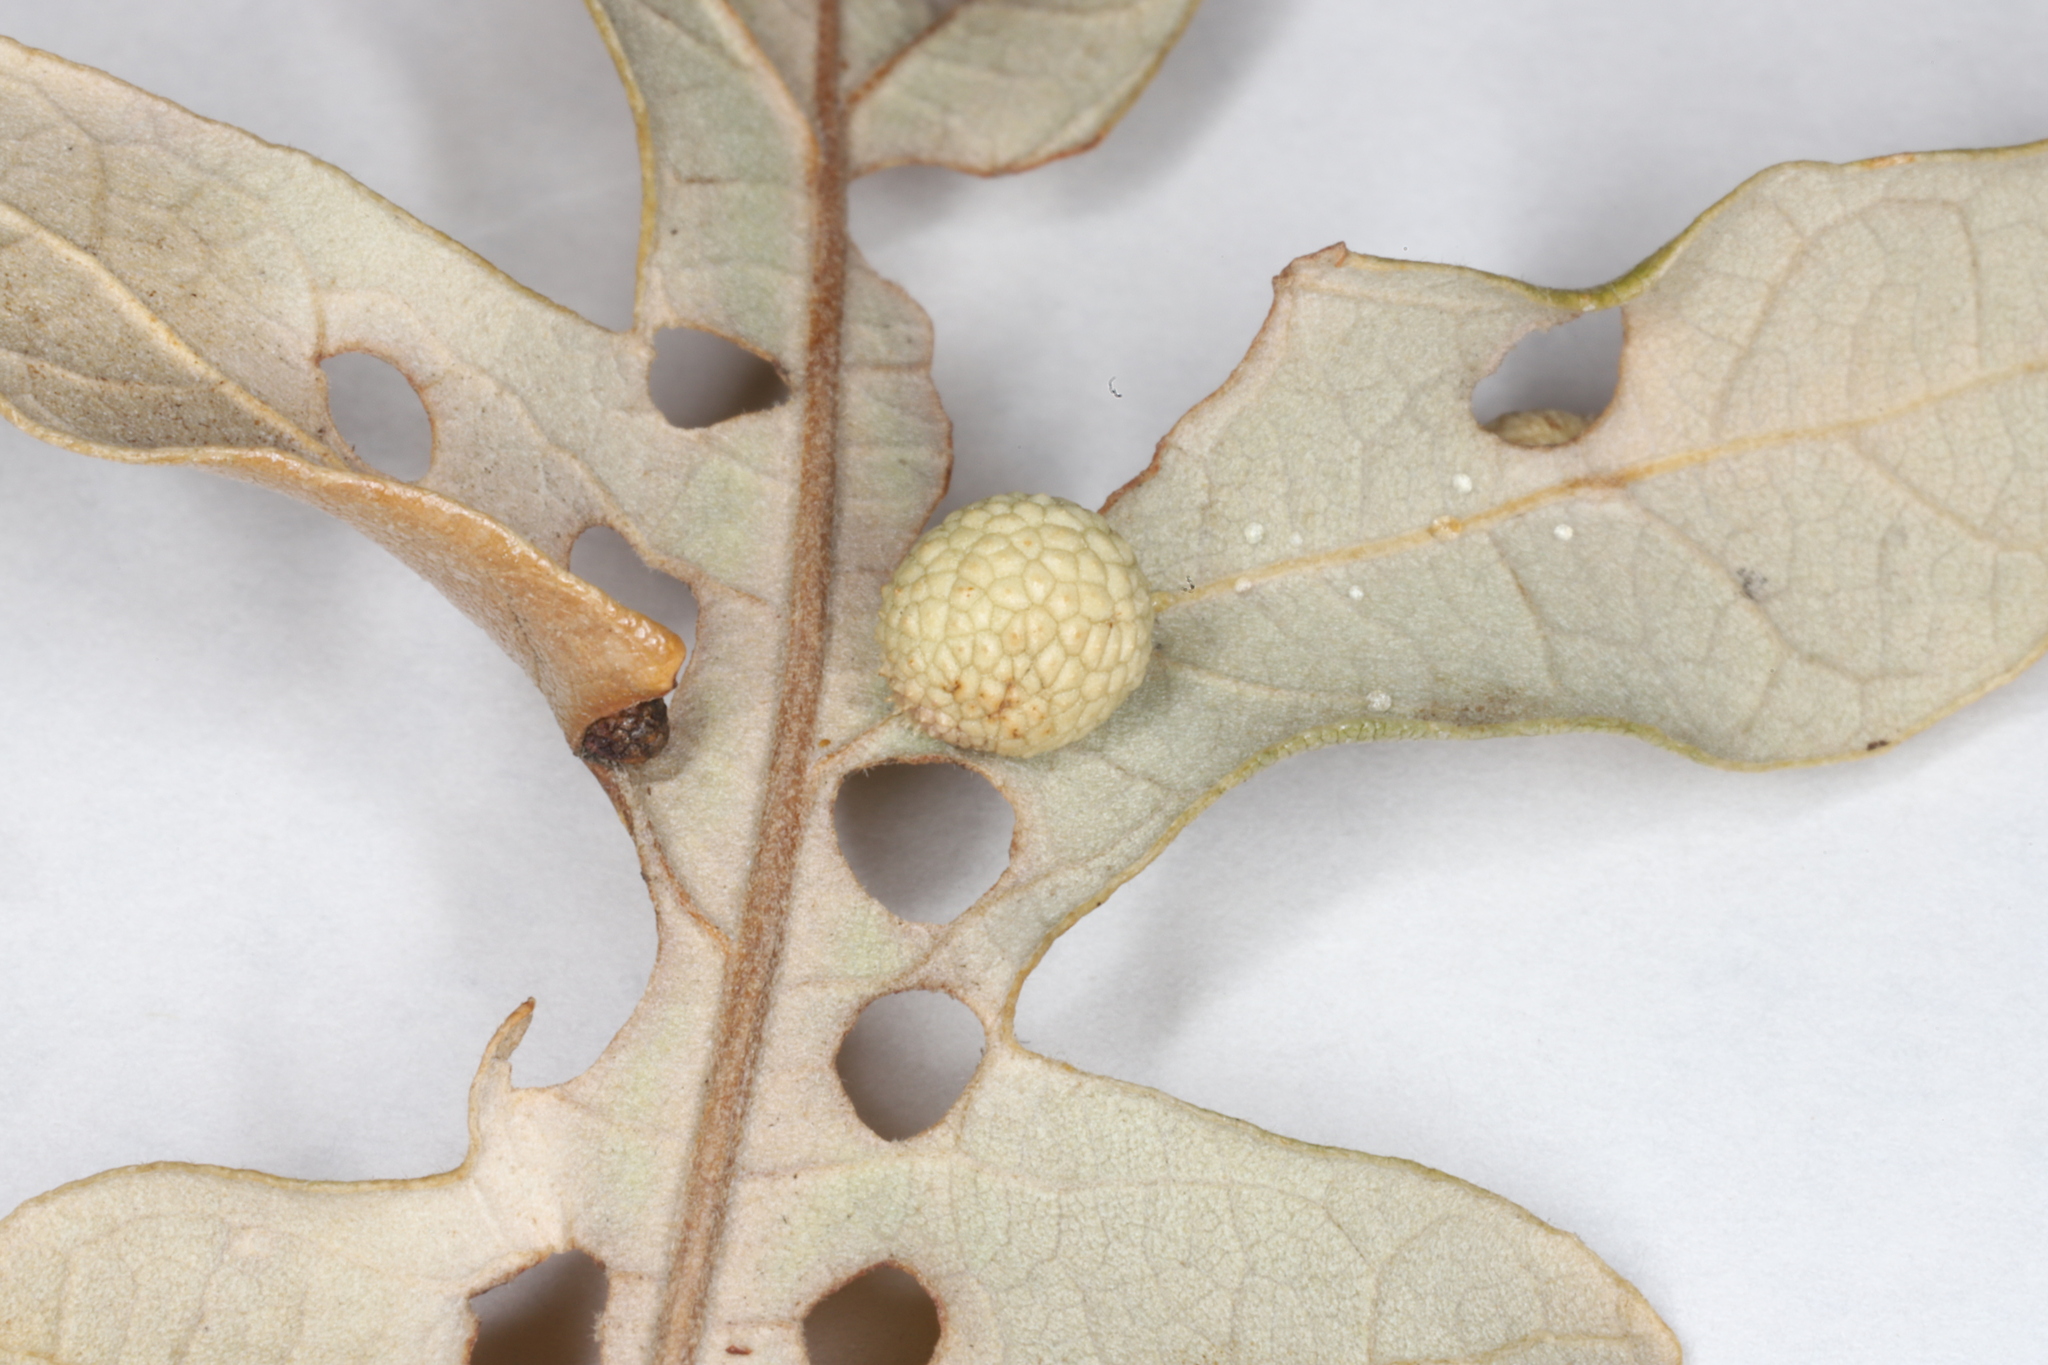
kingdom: Animalia
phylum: Arthropoda
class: Insecta
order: Hymenoptera
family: Cynipidae
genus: Acraspis
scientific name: Acraspis quercushirta
